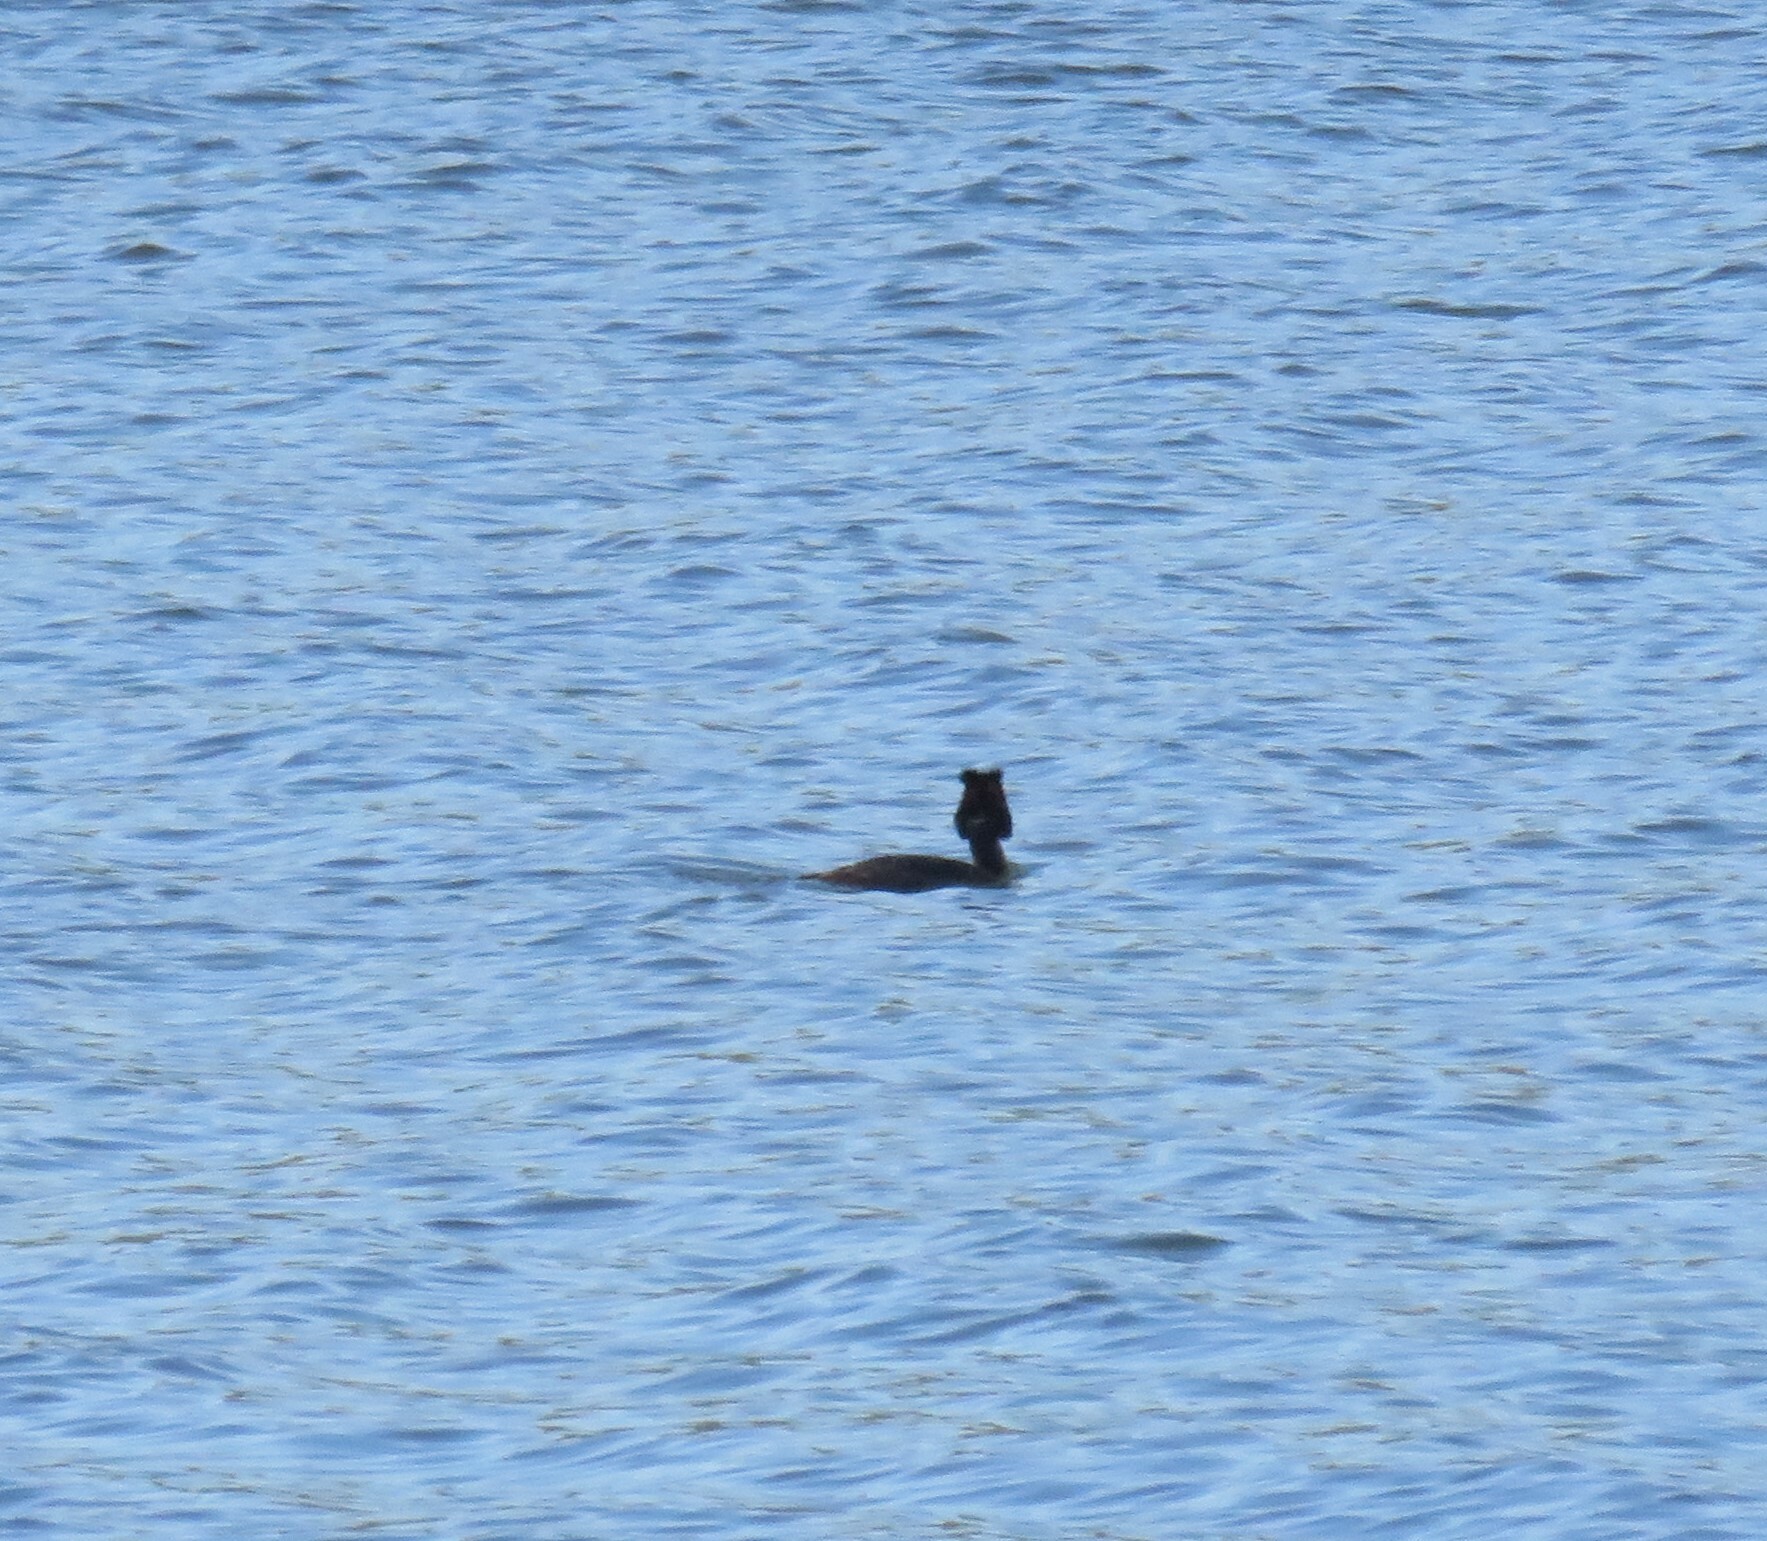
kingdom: Animalia
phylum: Chordata
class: Aves
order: Podicipediformes
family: Podicipedidae
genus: Podiceps
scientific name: Podiceps cristatus
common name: Great crested grebe
